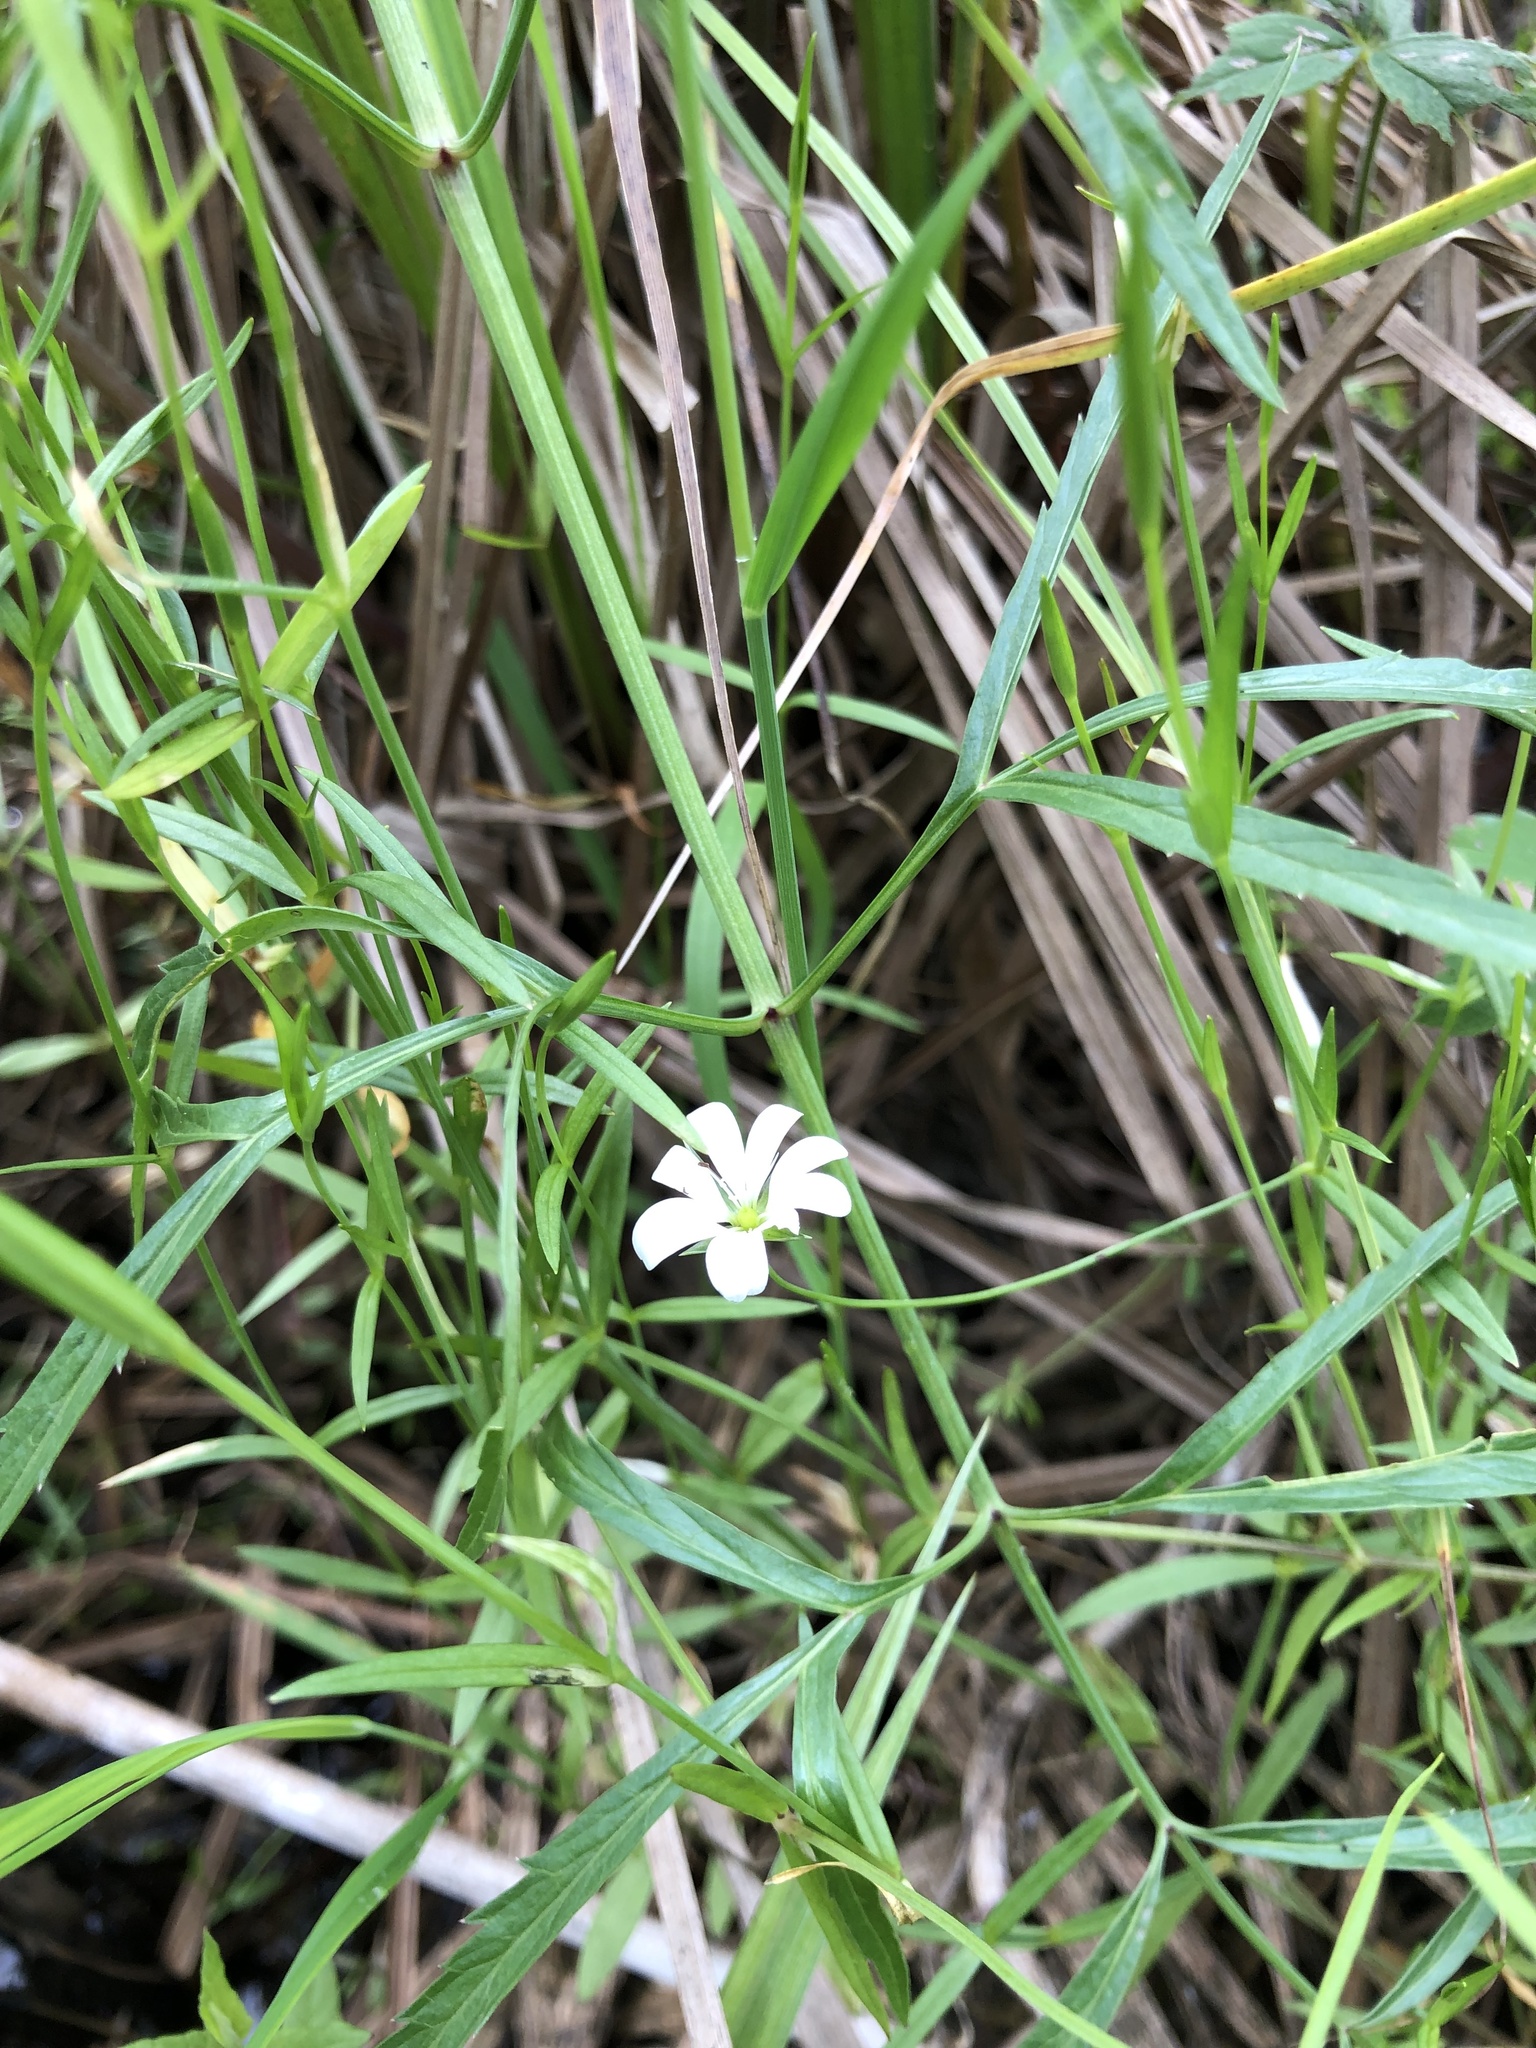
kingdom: Plantae
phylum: Tracheophyta
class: Magnoliopsida
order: Caryophyllales
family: Caryophyllaceae
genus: Stellaria
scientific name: Stellaria palustris
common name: Marsh stitchwort
